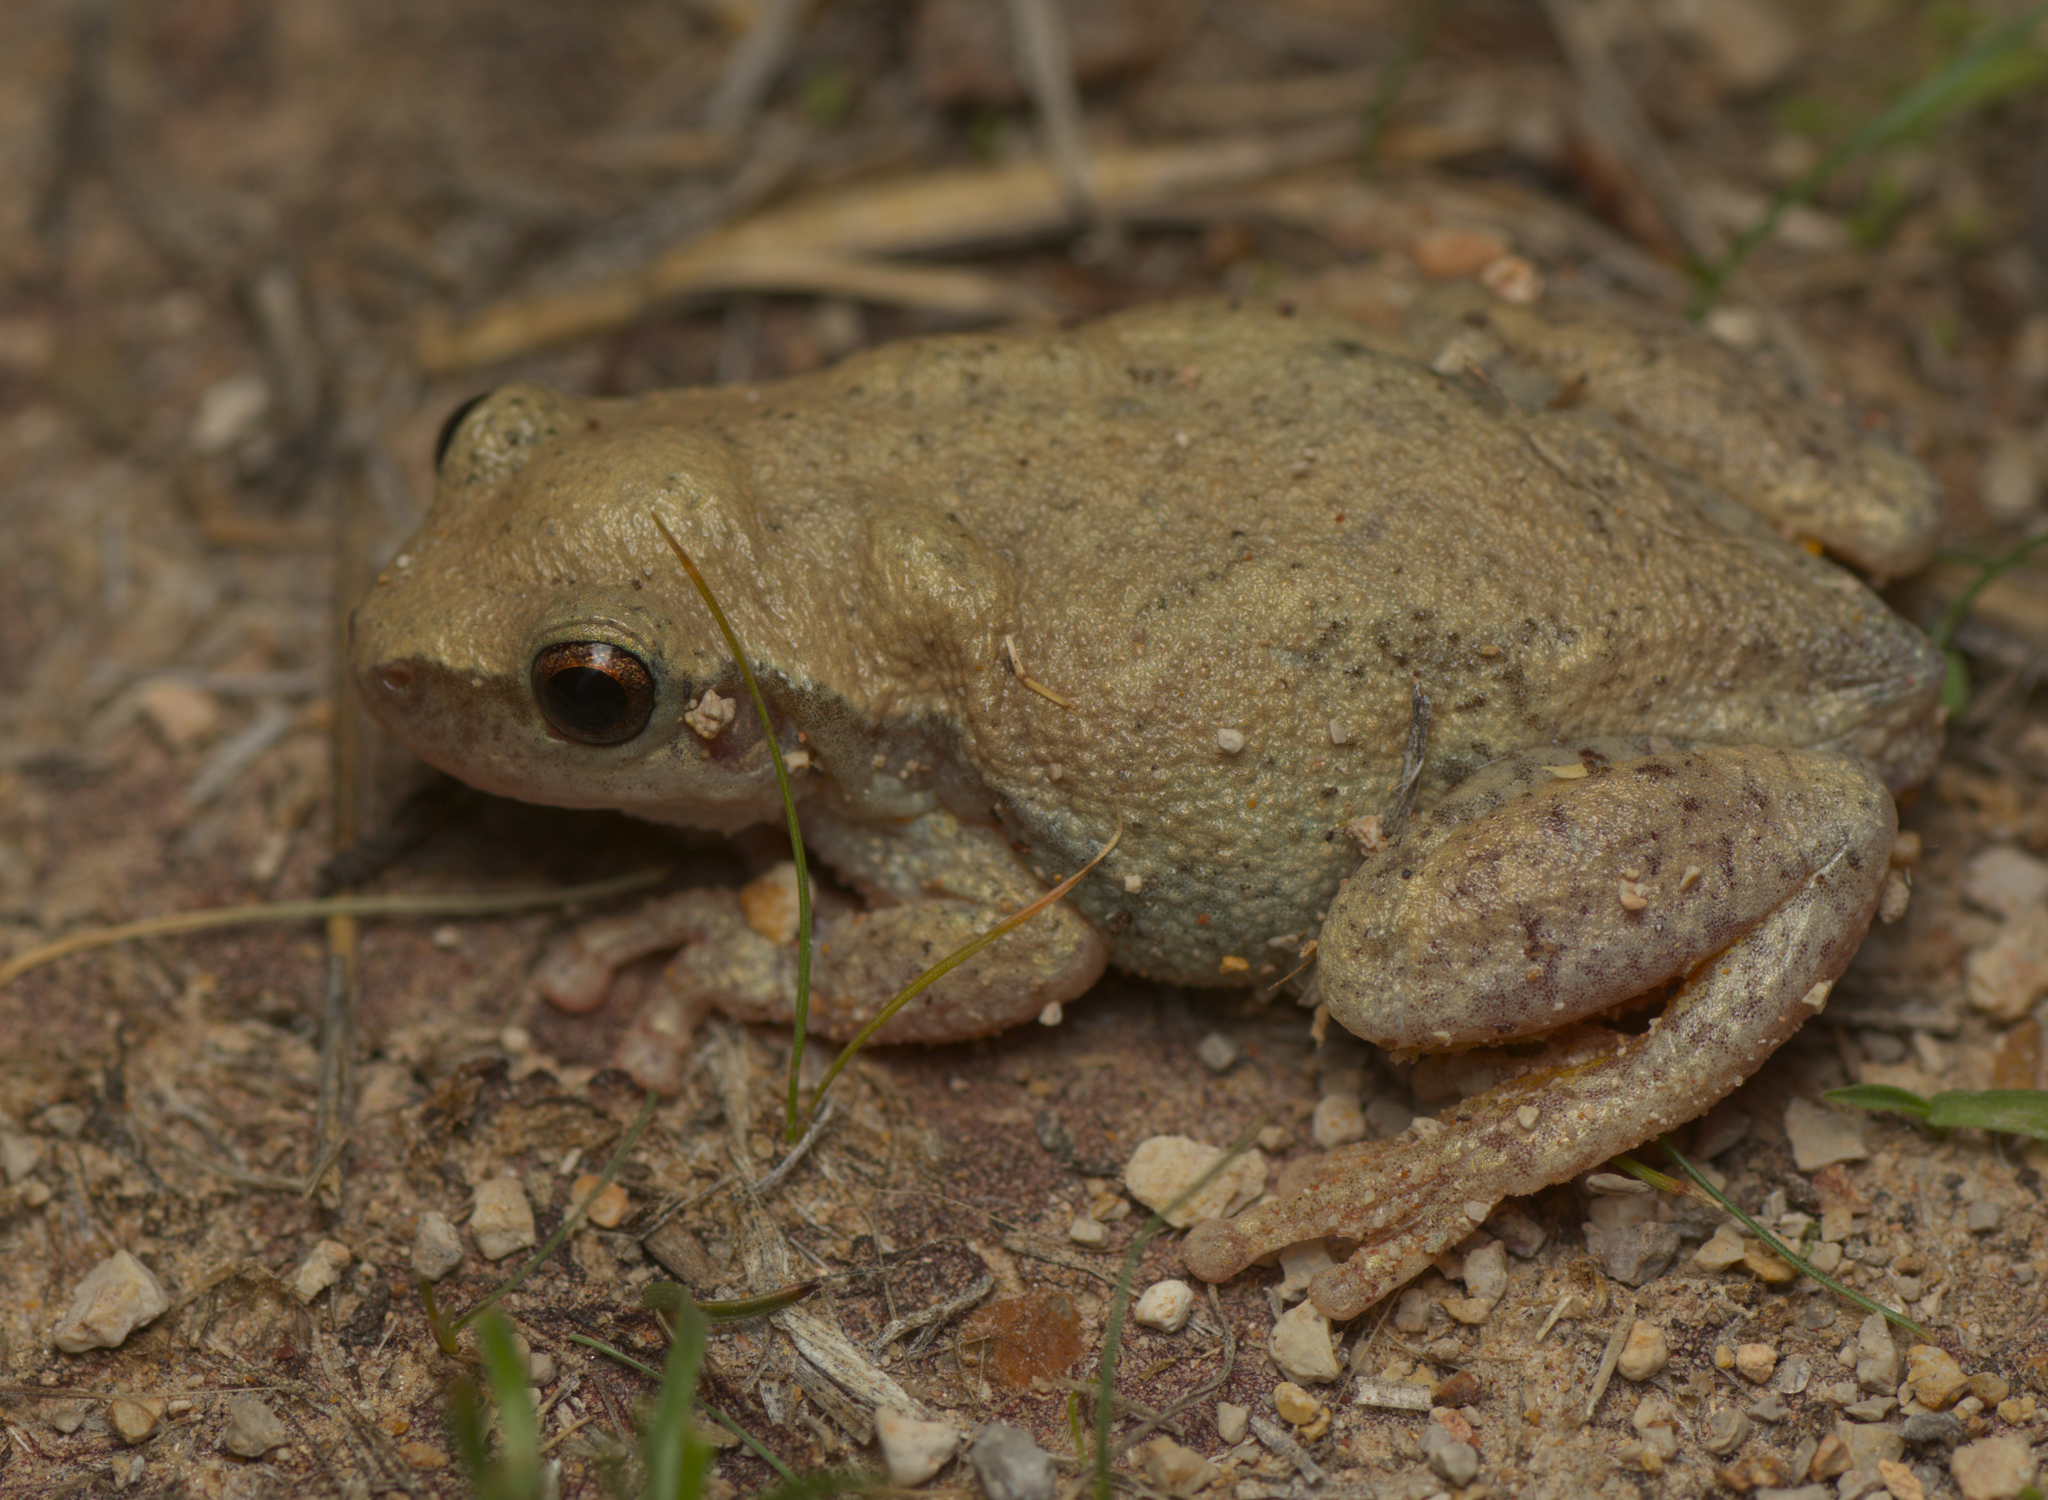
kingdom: Animalia
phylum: Chordata
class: Amphibia
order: Anura
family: Pelodryadidae
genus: Litoria
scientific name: Litoria rubella
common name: Desert tree frog
